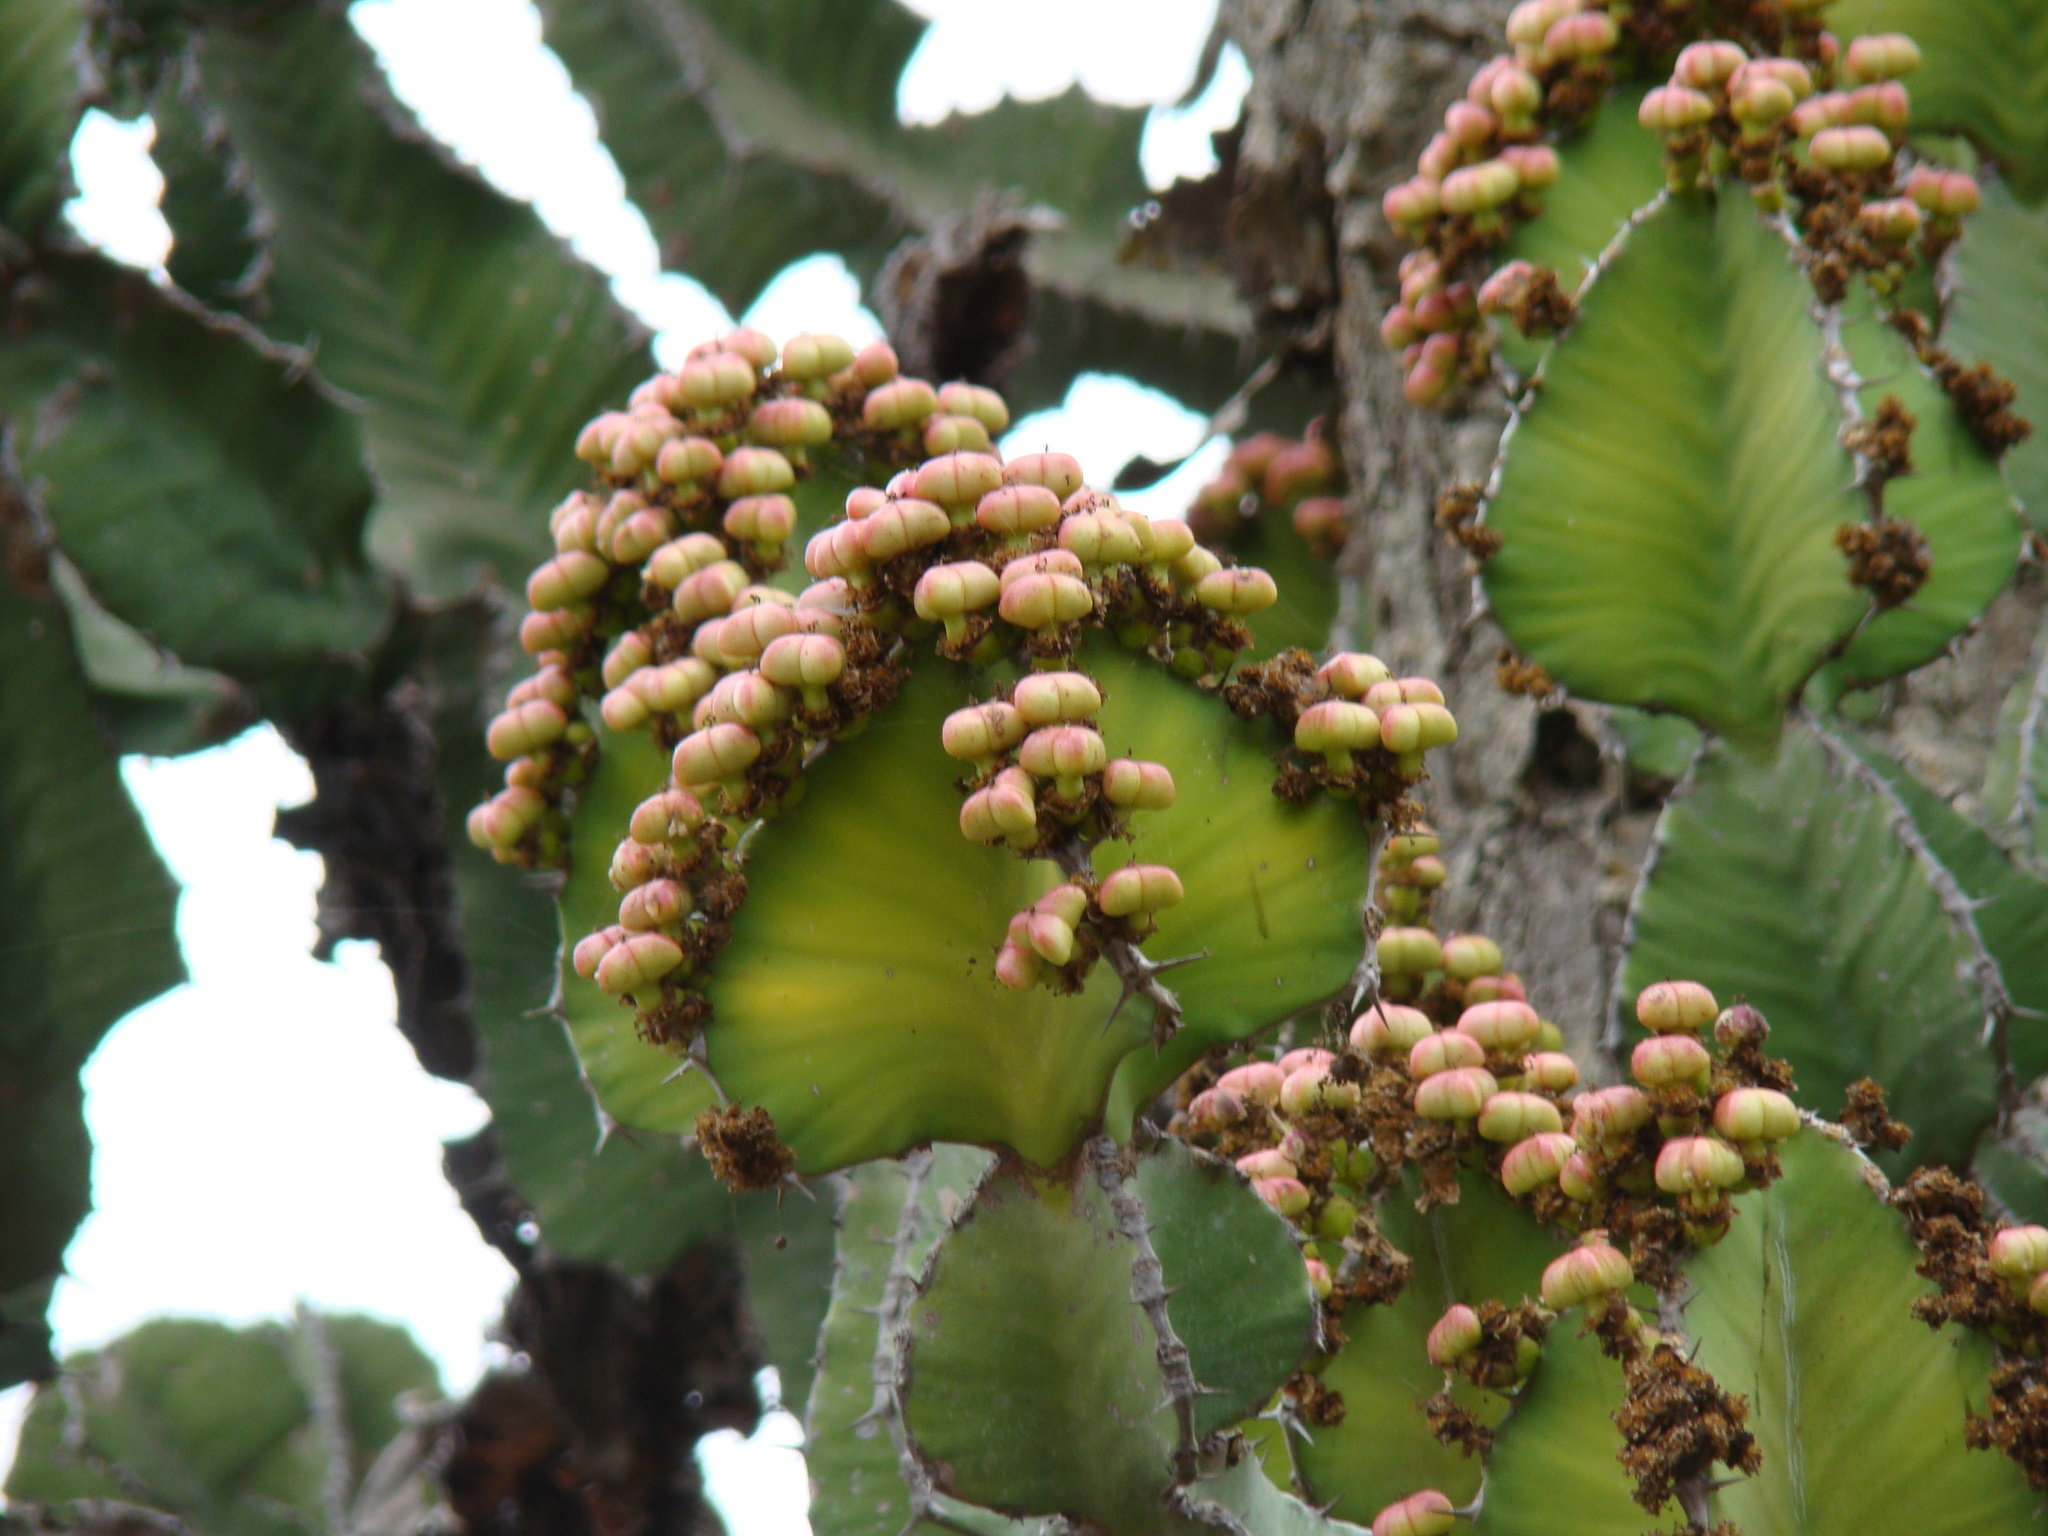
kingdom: Plantae
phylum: Tracheophyta
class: Magnoliopsida
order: Malpighiales
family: Euphorbiaceae
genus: Euphorbia
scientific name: Euphorbia cooperi
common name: Candelabra tree
